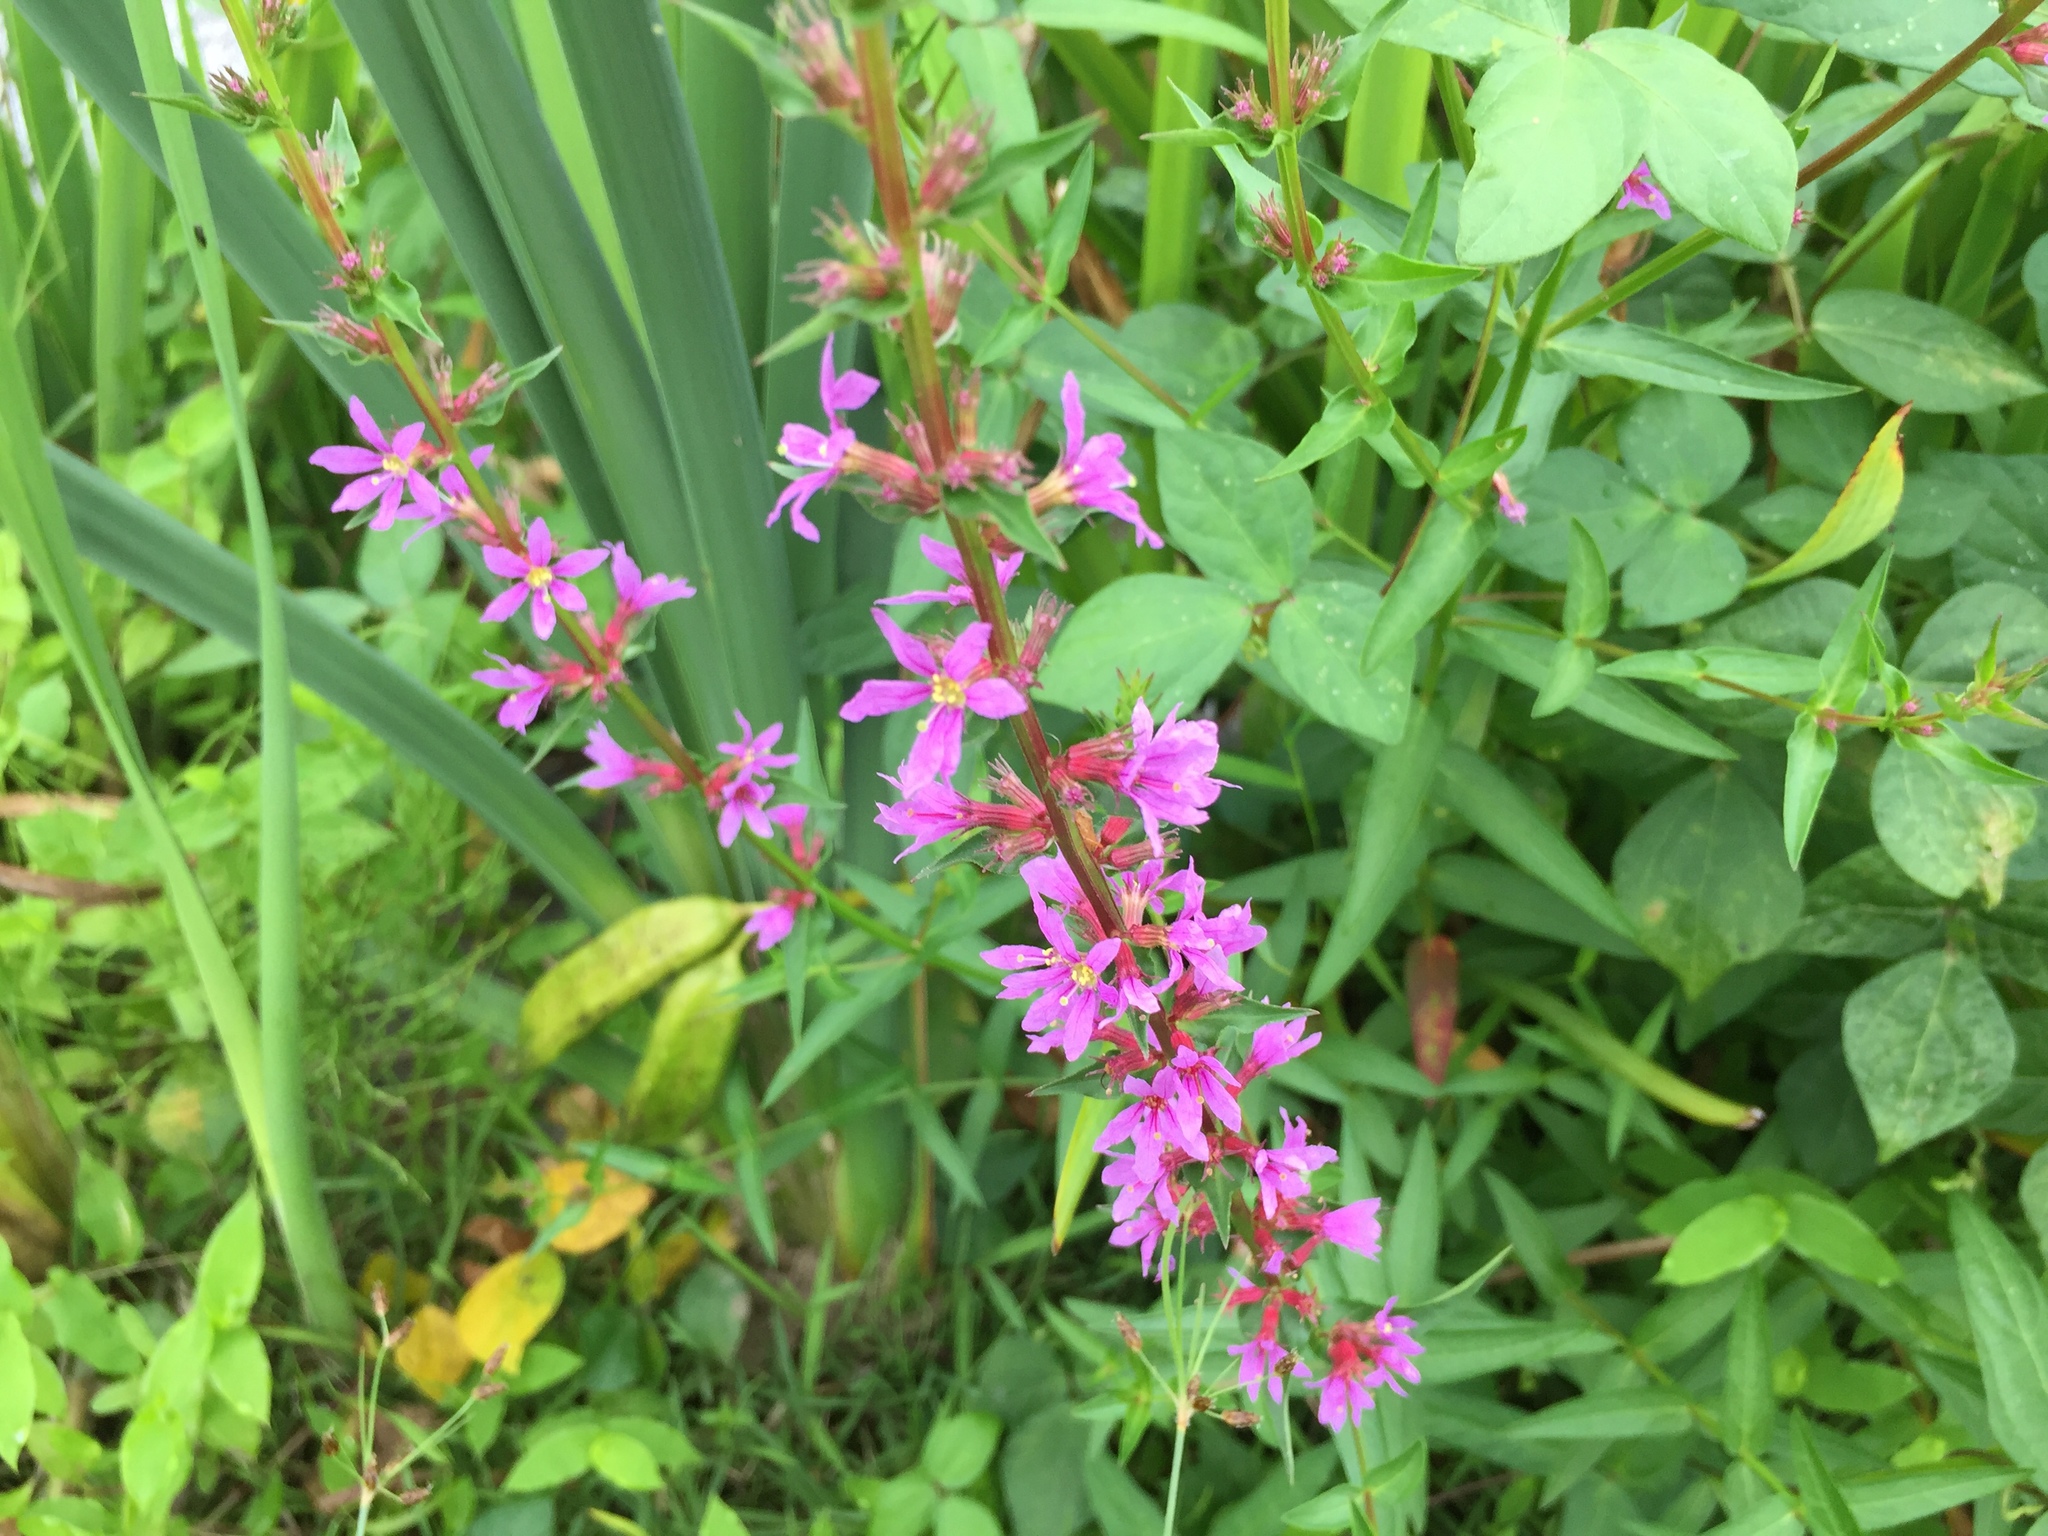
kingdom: Plantae
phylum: Tracheophyta
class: Magnoliopsida
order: Myrtales
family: Lythraceae
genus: Lythrum
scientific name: Lythrum salicaria
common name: Purple loosestrife
